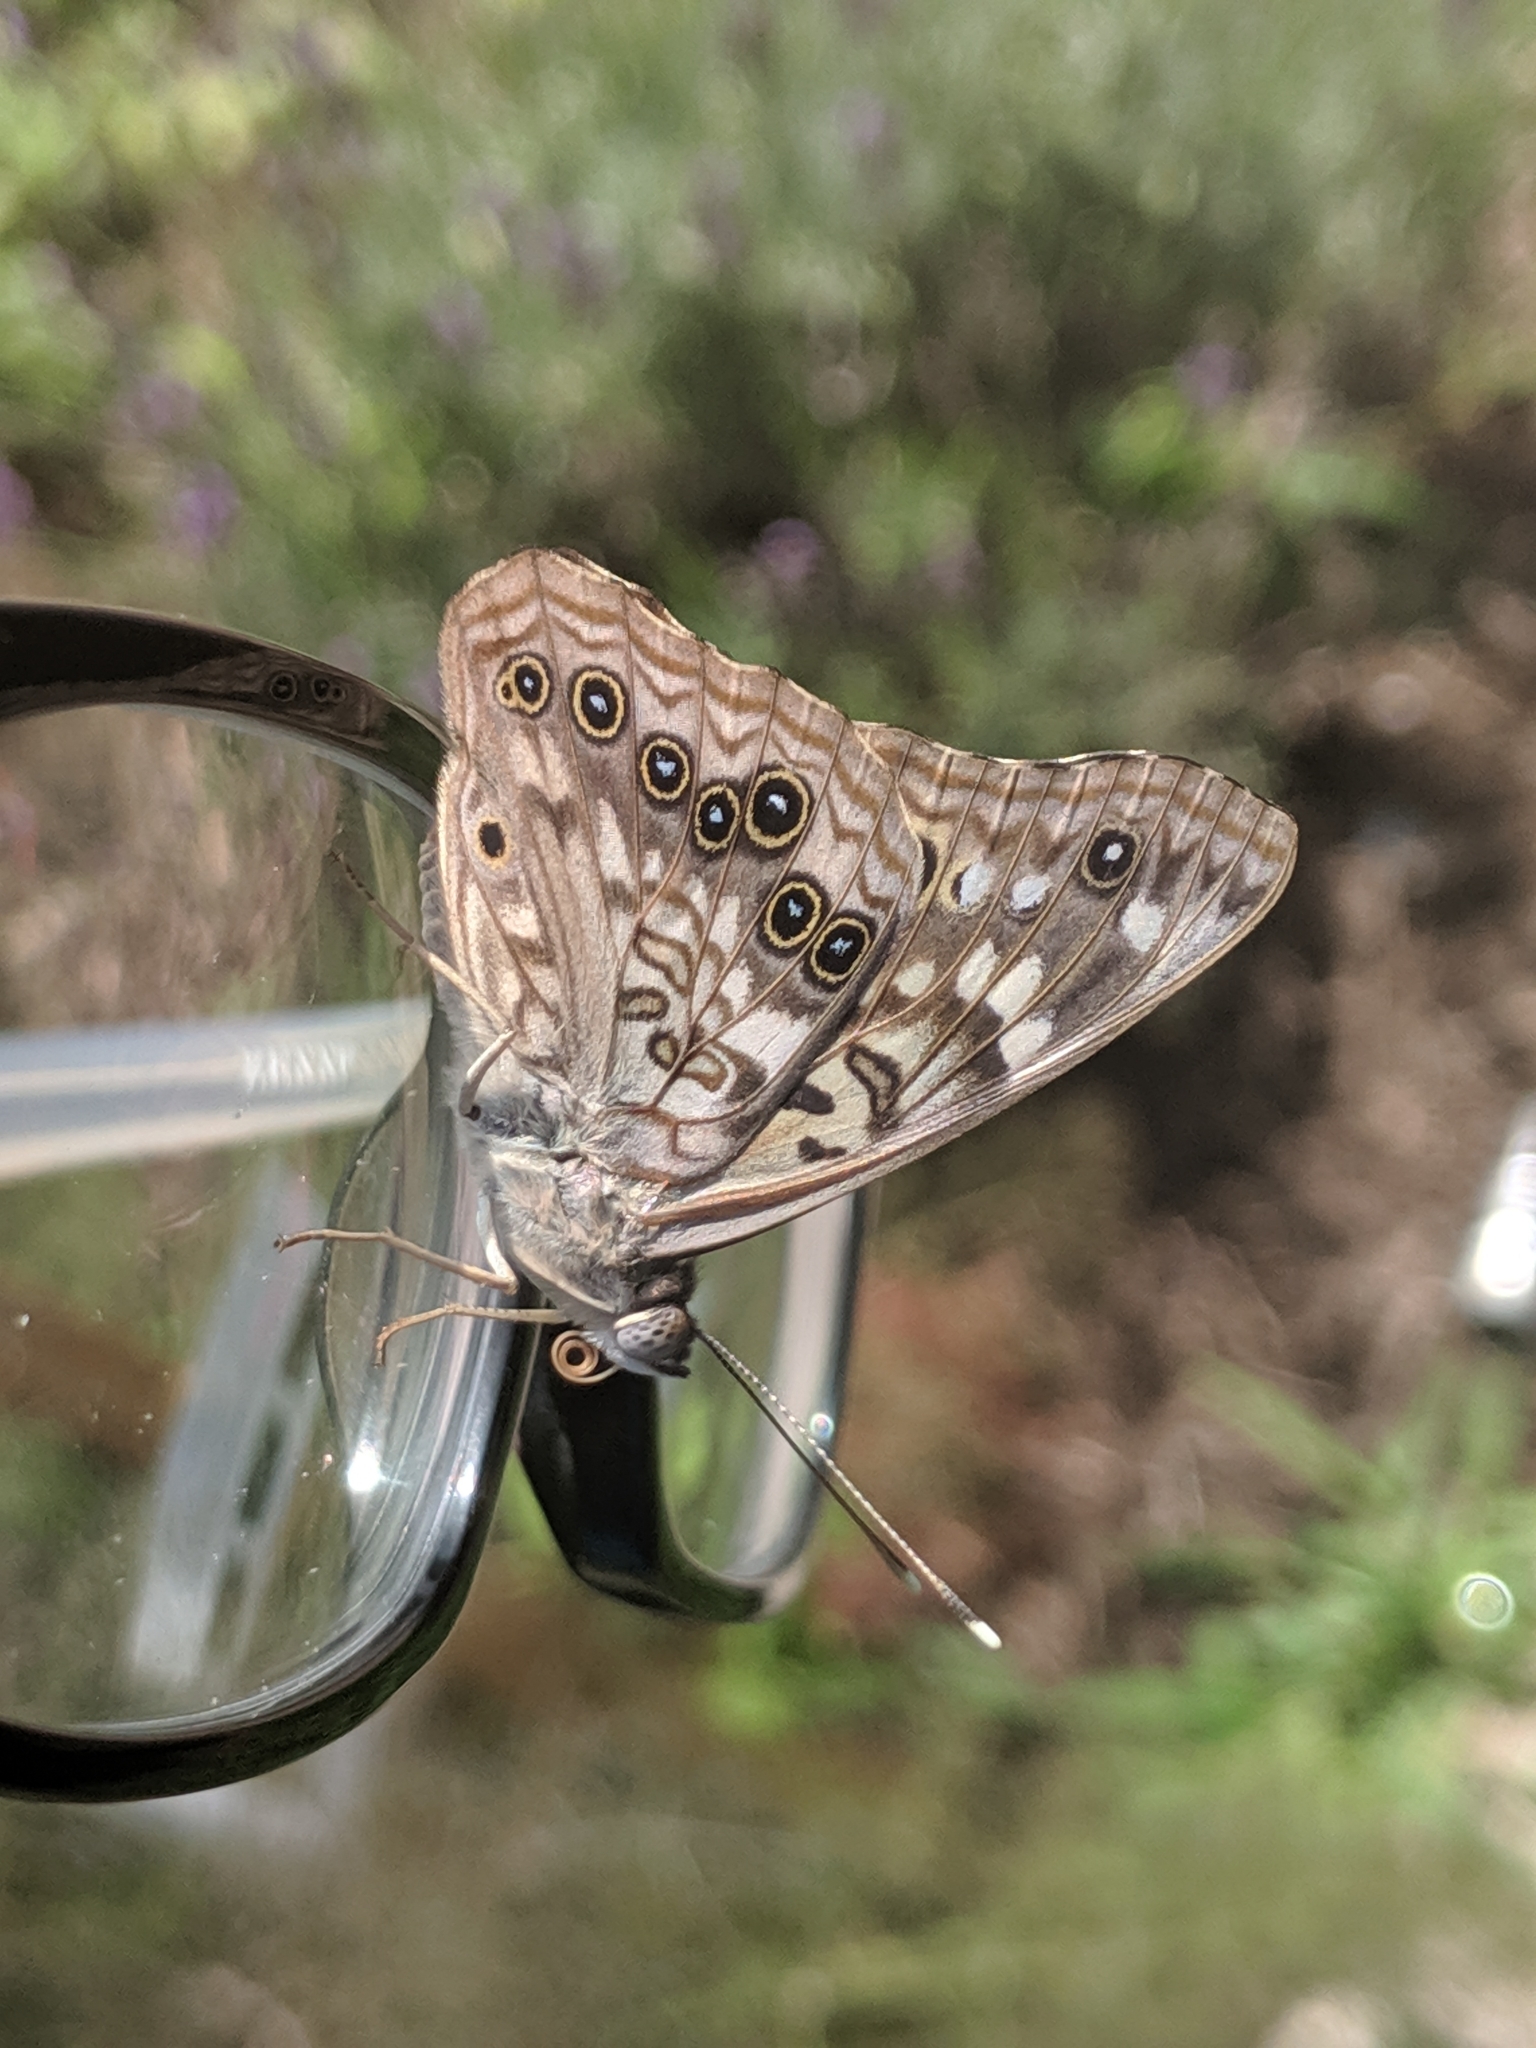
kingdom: Animalia
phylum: Arthropoda
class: Insecta
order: Lepidoptera
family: Nymphalidae
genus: Asterocampa
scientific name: Asterocampa celtis
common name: Hackberry emperor
